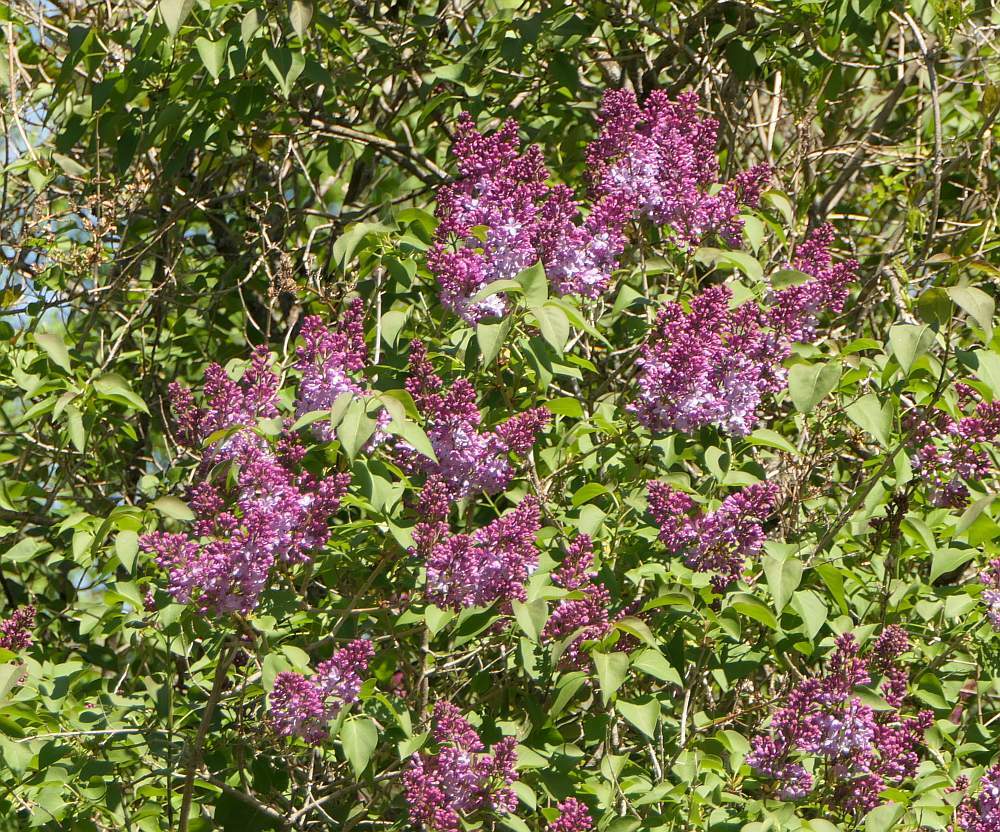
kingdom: Plantae
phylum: Tracheophyta
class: Magnoliopsida
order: Lamiales
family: Oleaceae
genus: Syringa
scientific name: Syringa vulgaris
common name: Common lilac
